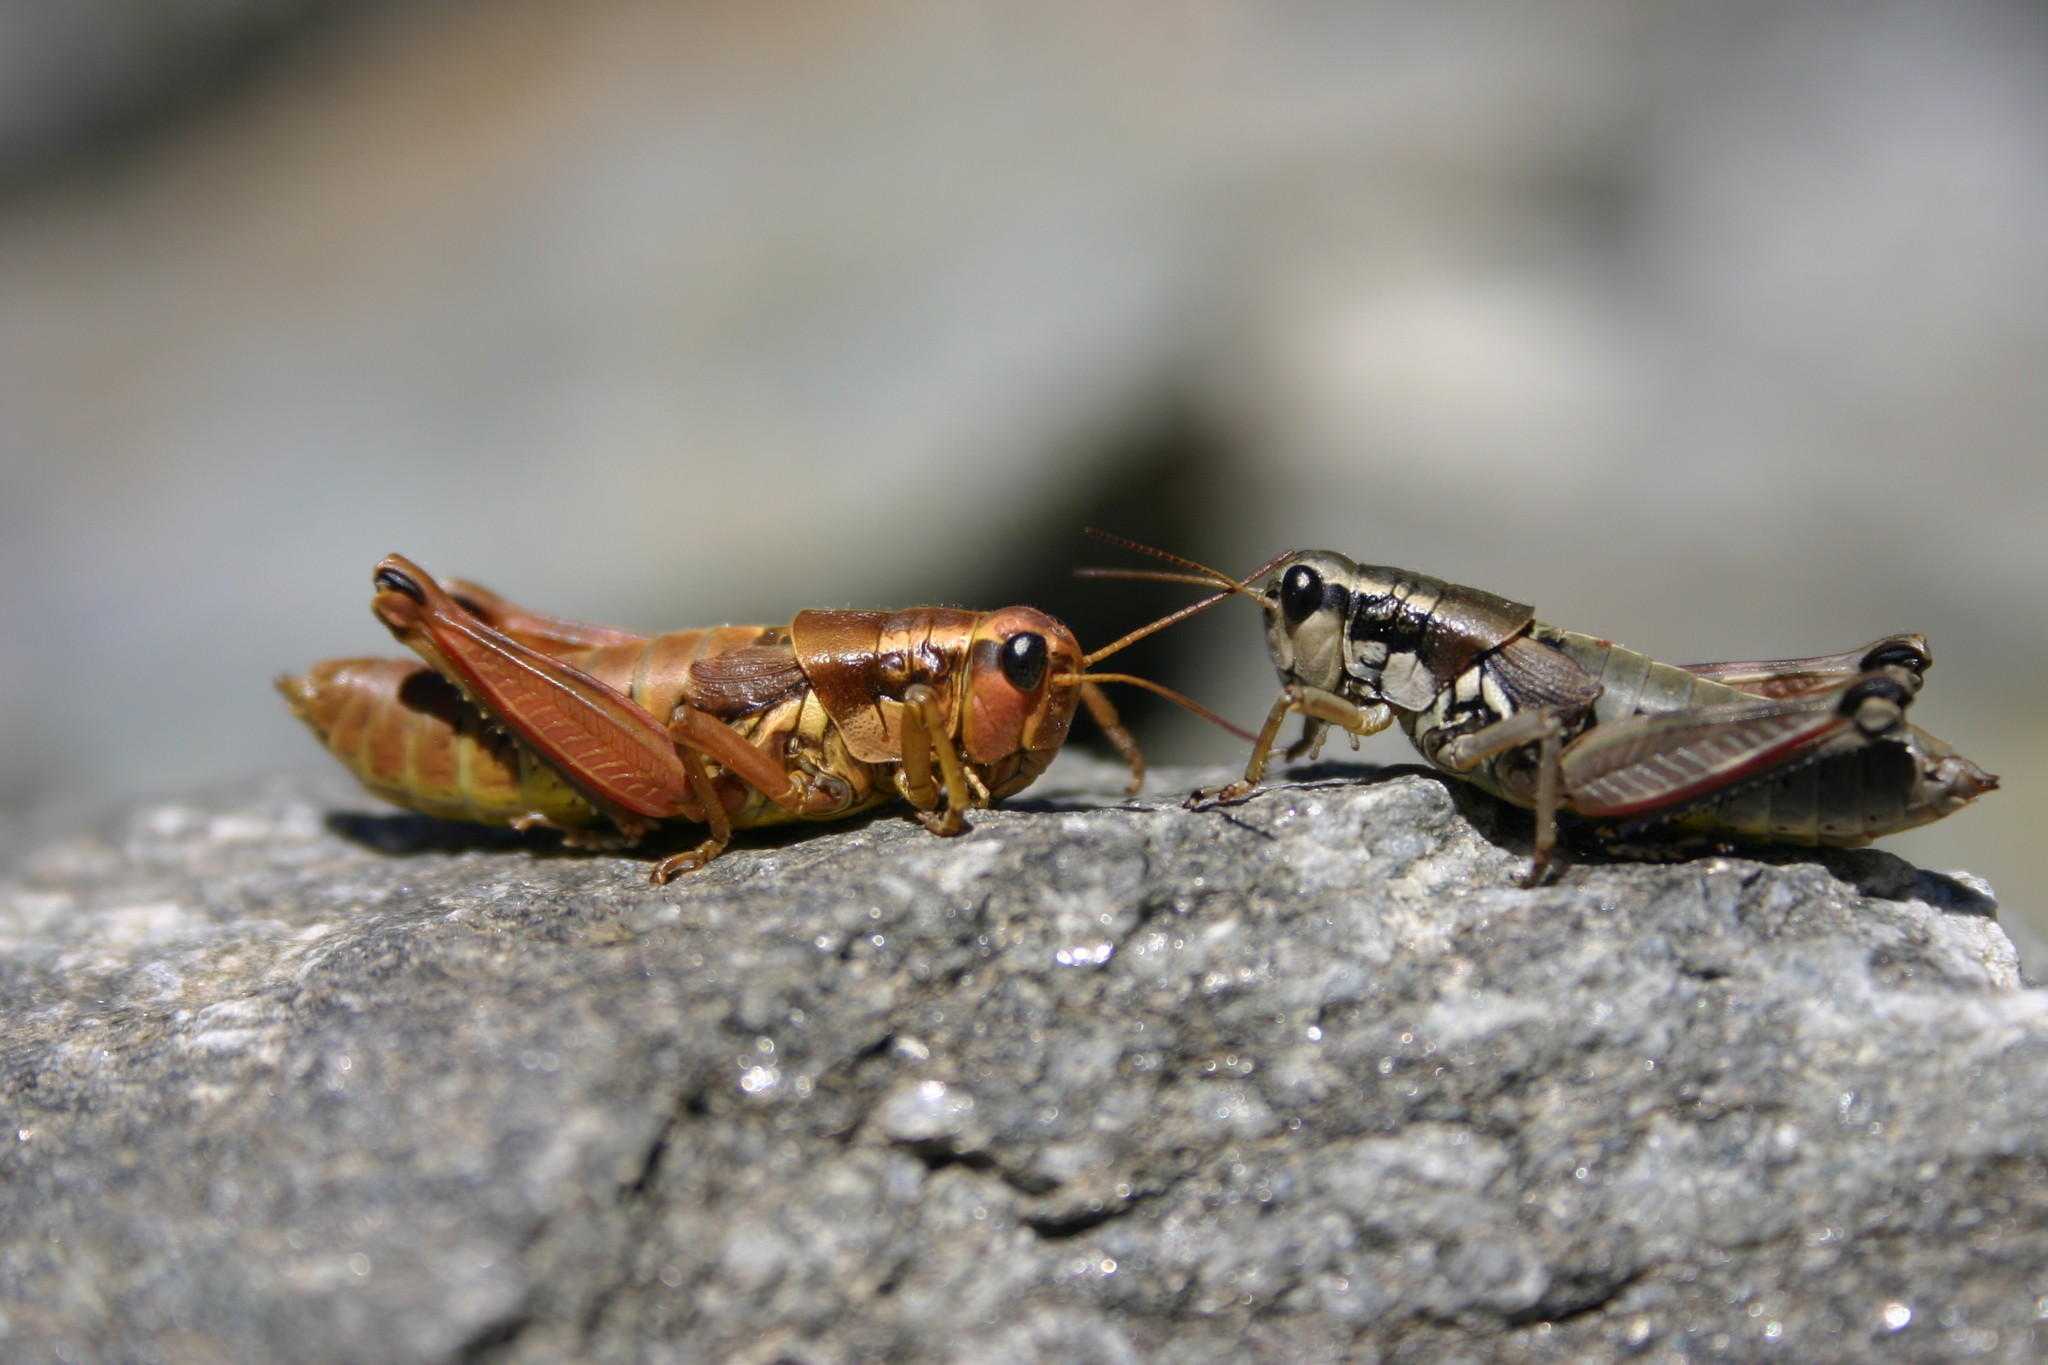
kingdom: Animalia
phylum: Arthropoda
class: Insecta
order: Orthoptera
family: Acrididae
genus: Podisma
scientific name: Podisma pedestris
